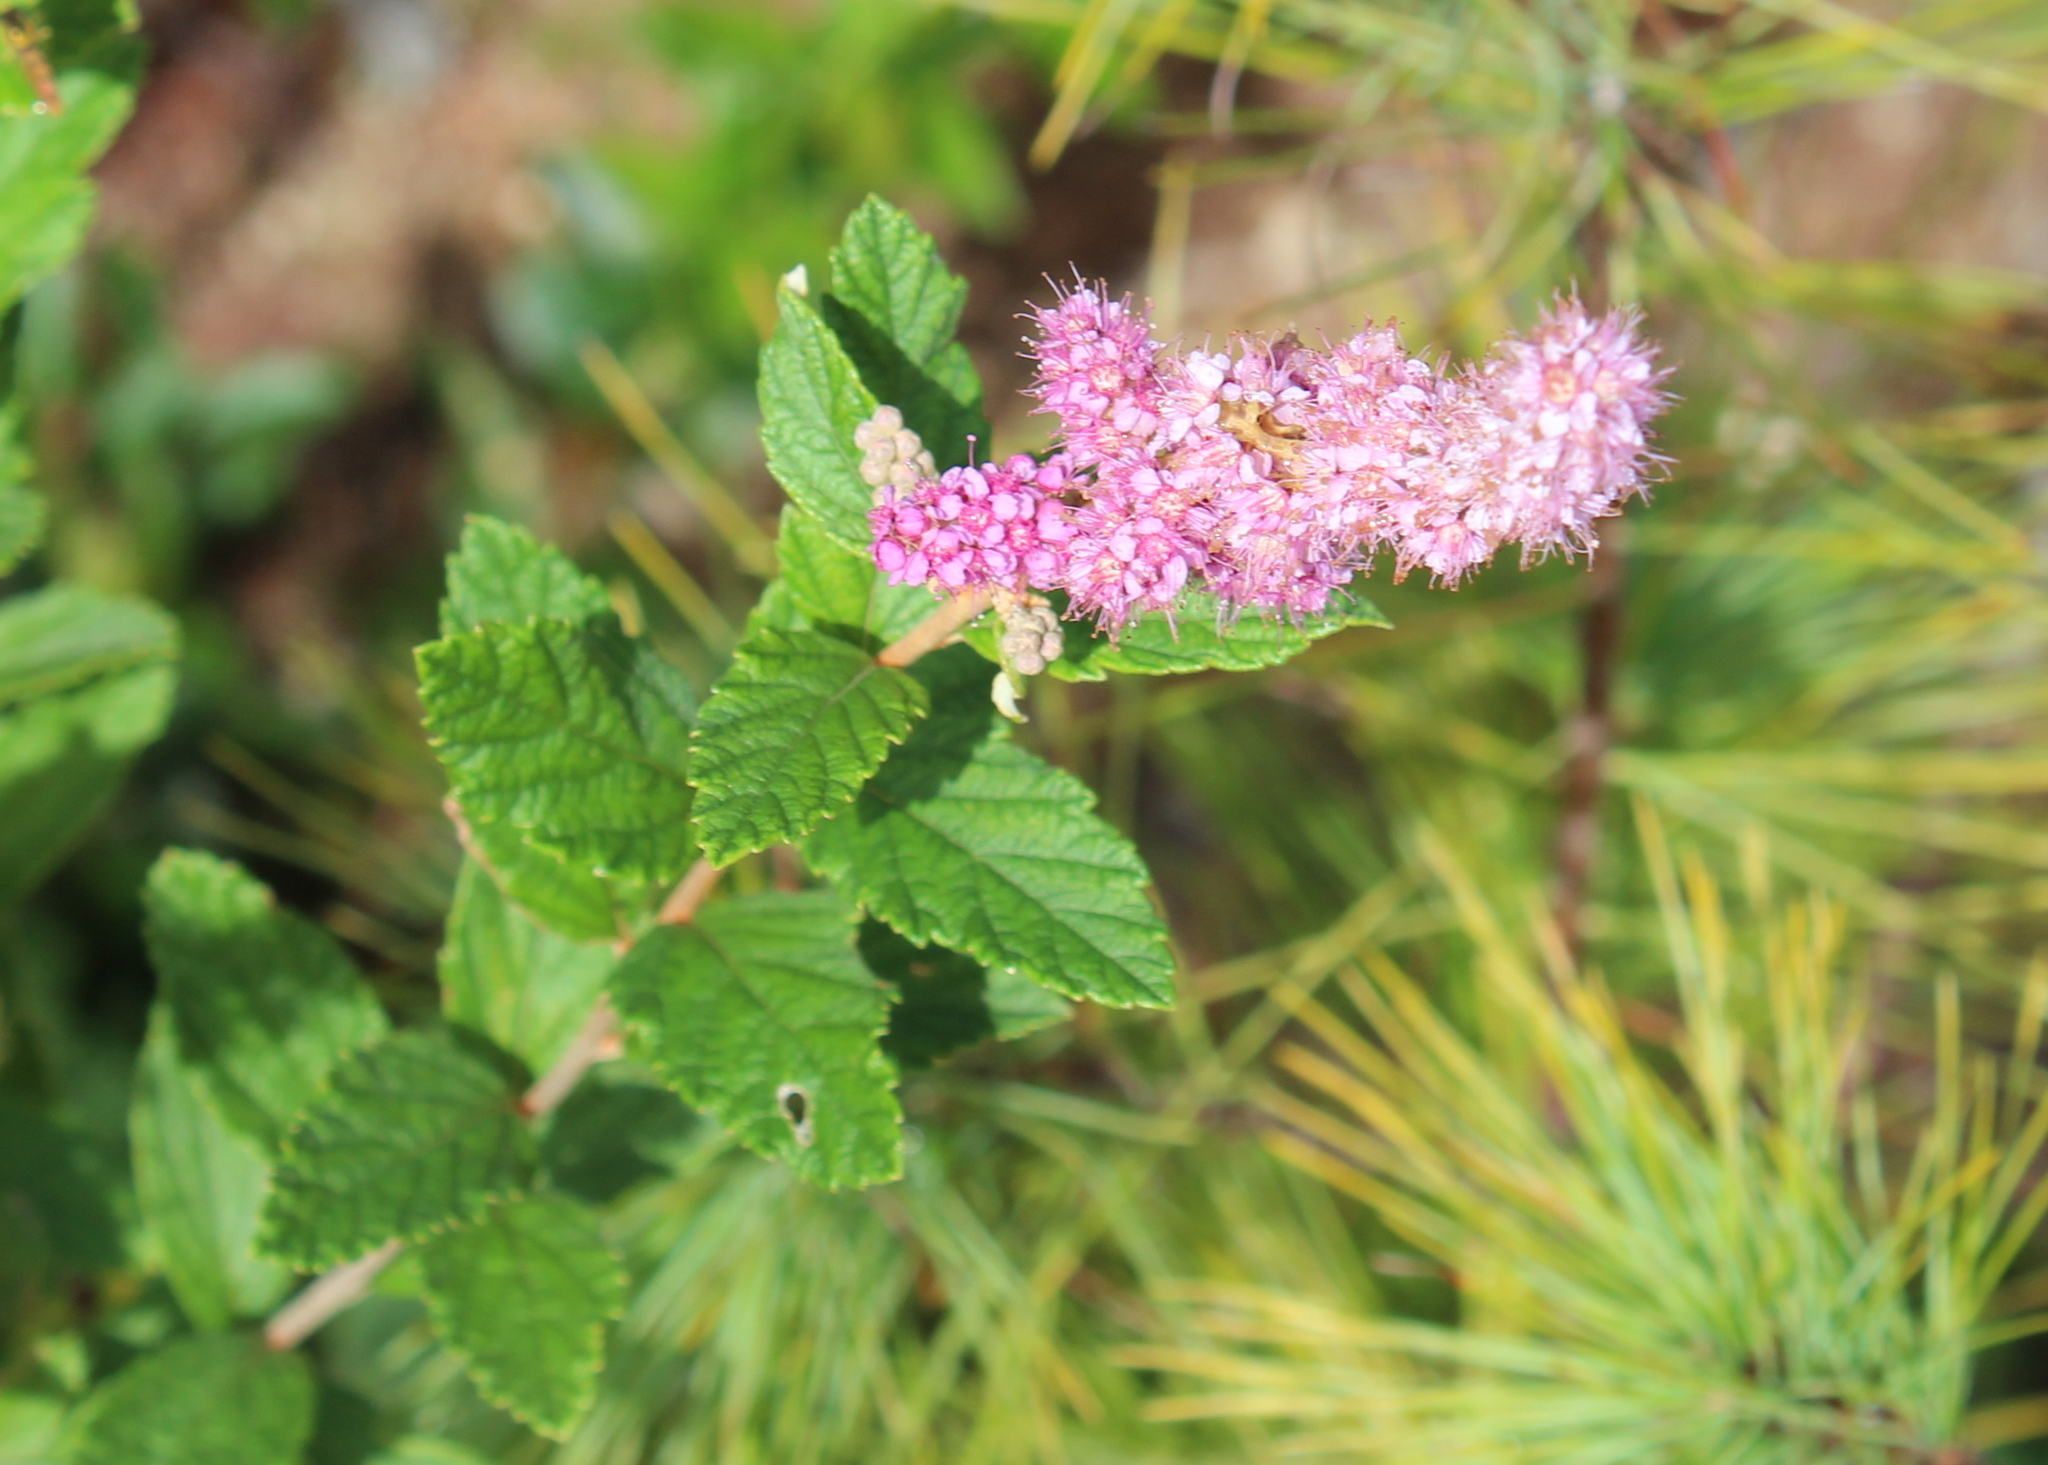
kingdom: Plantae
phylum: Tracheophyta
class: Magnoliopsida
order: Rosales
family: Rosaceae
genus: Spiraea
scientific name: Spiraea tomentosa
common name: Hardhack
